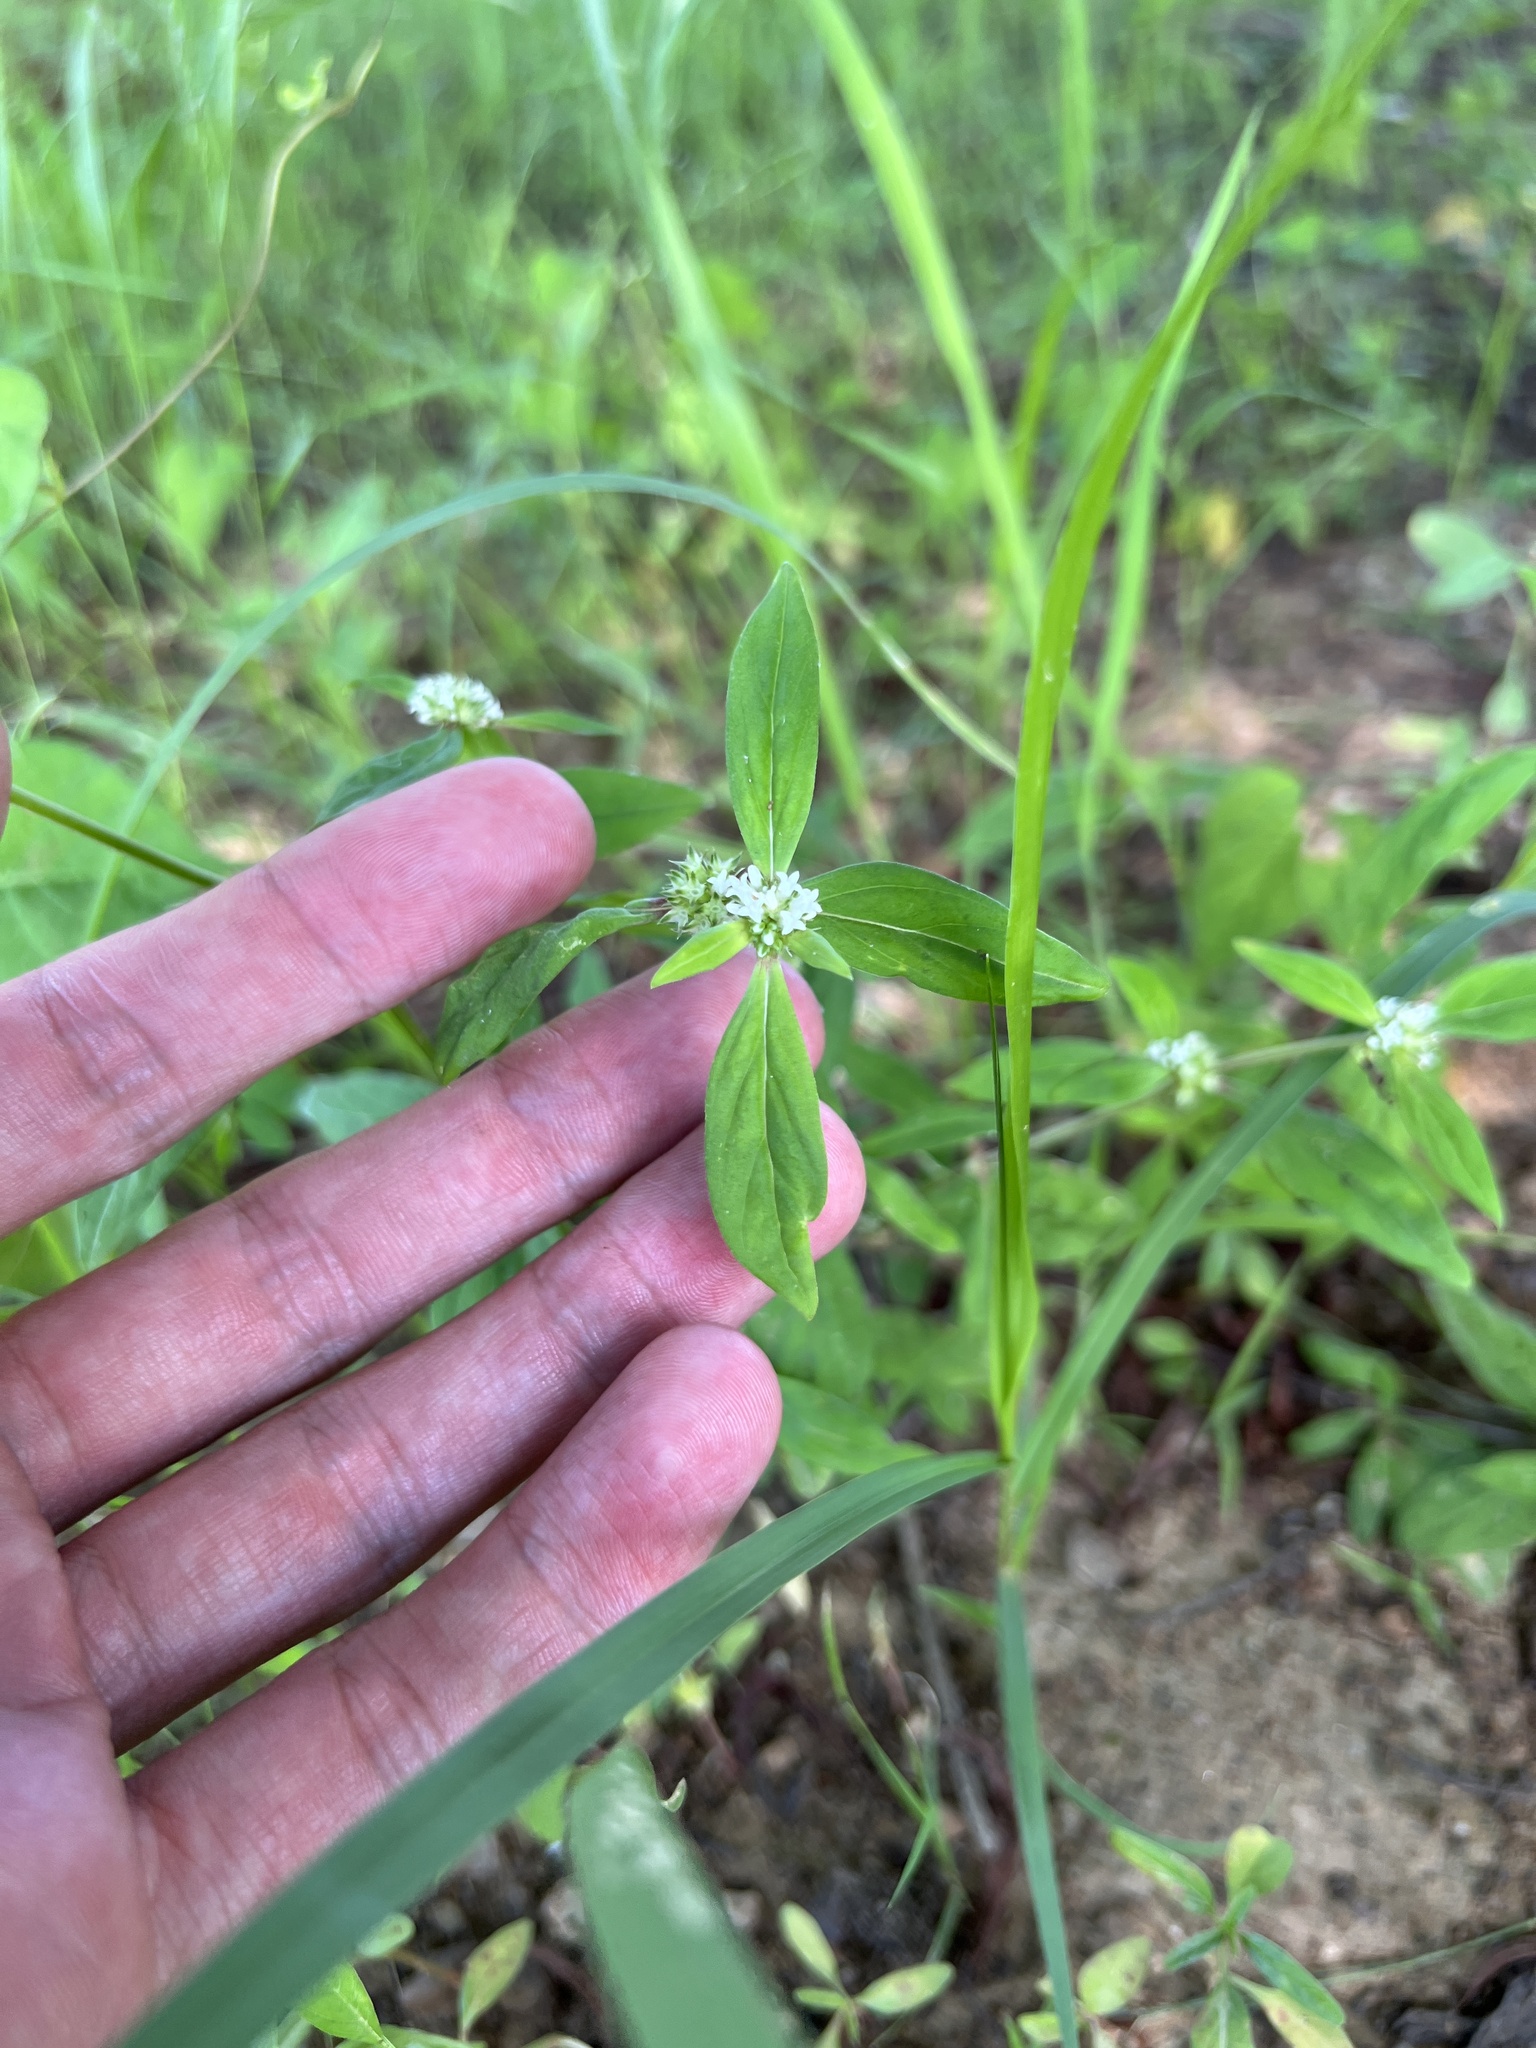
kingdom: Plantae
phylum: Tracheophyta
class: Magnoliopsida
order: Gentianales
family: Rubiaceae
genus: Spermacoce
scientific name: Spermacoce glabra
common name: Smooth buttonweed
